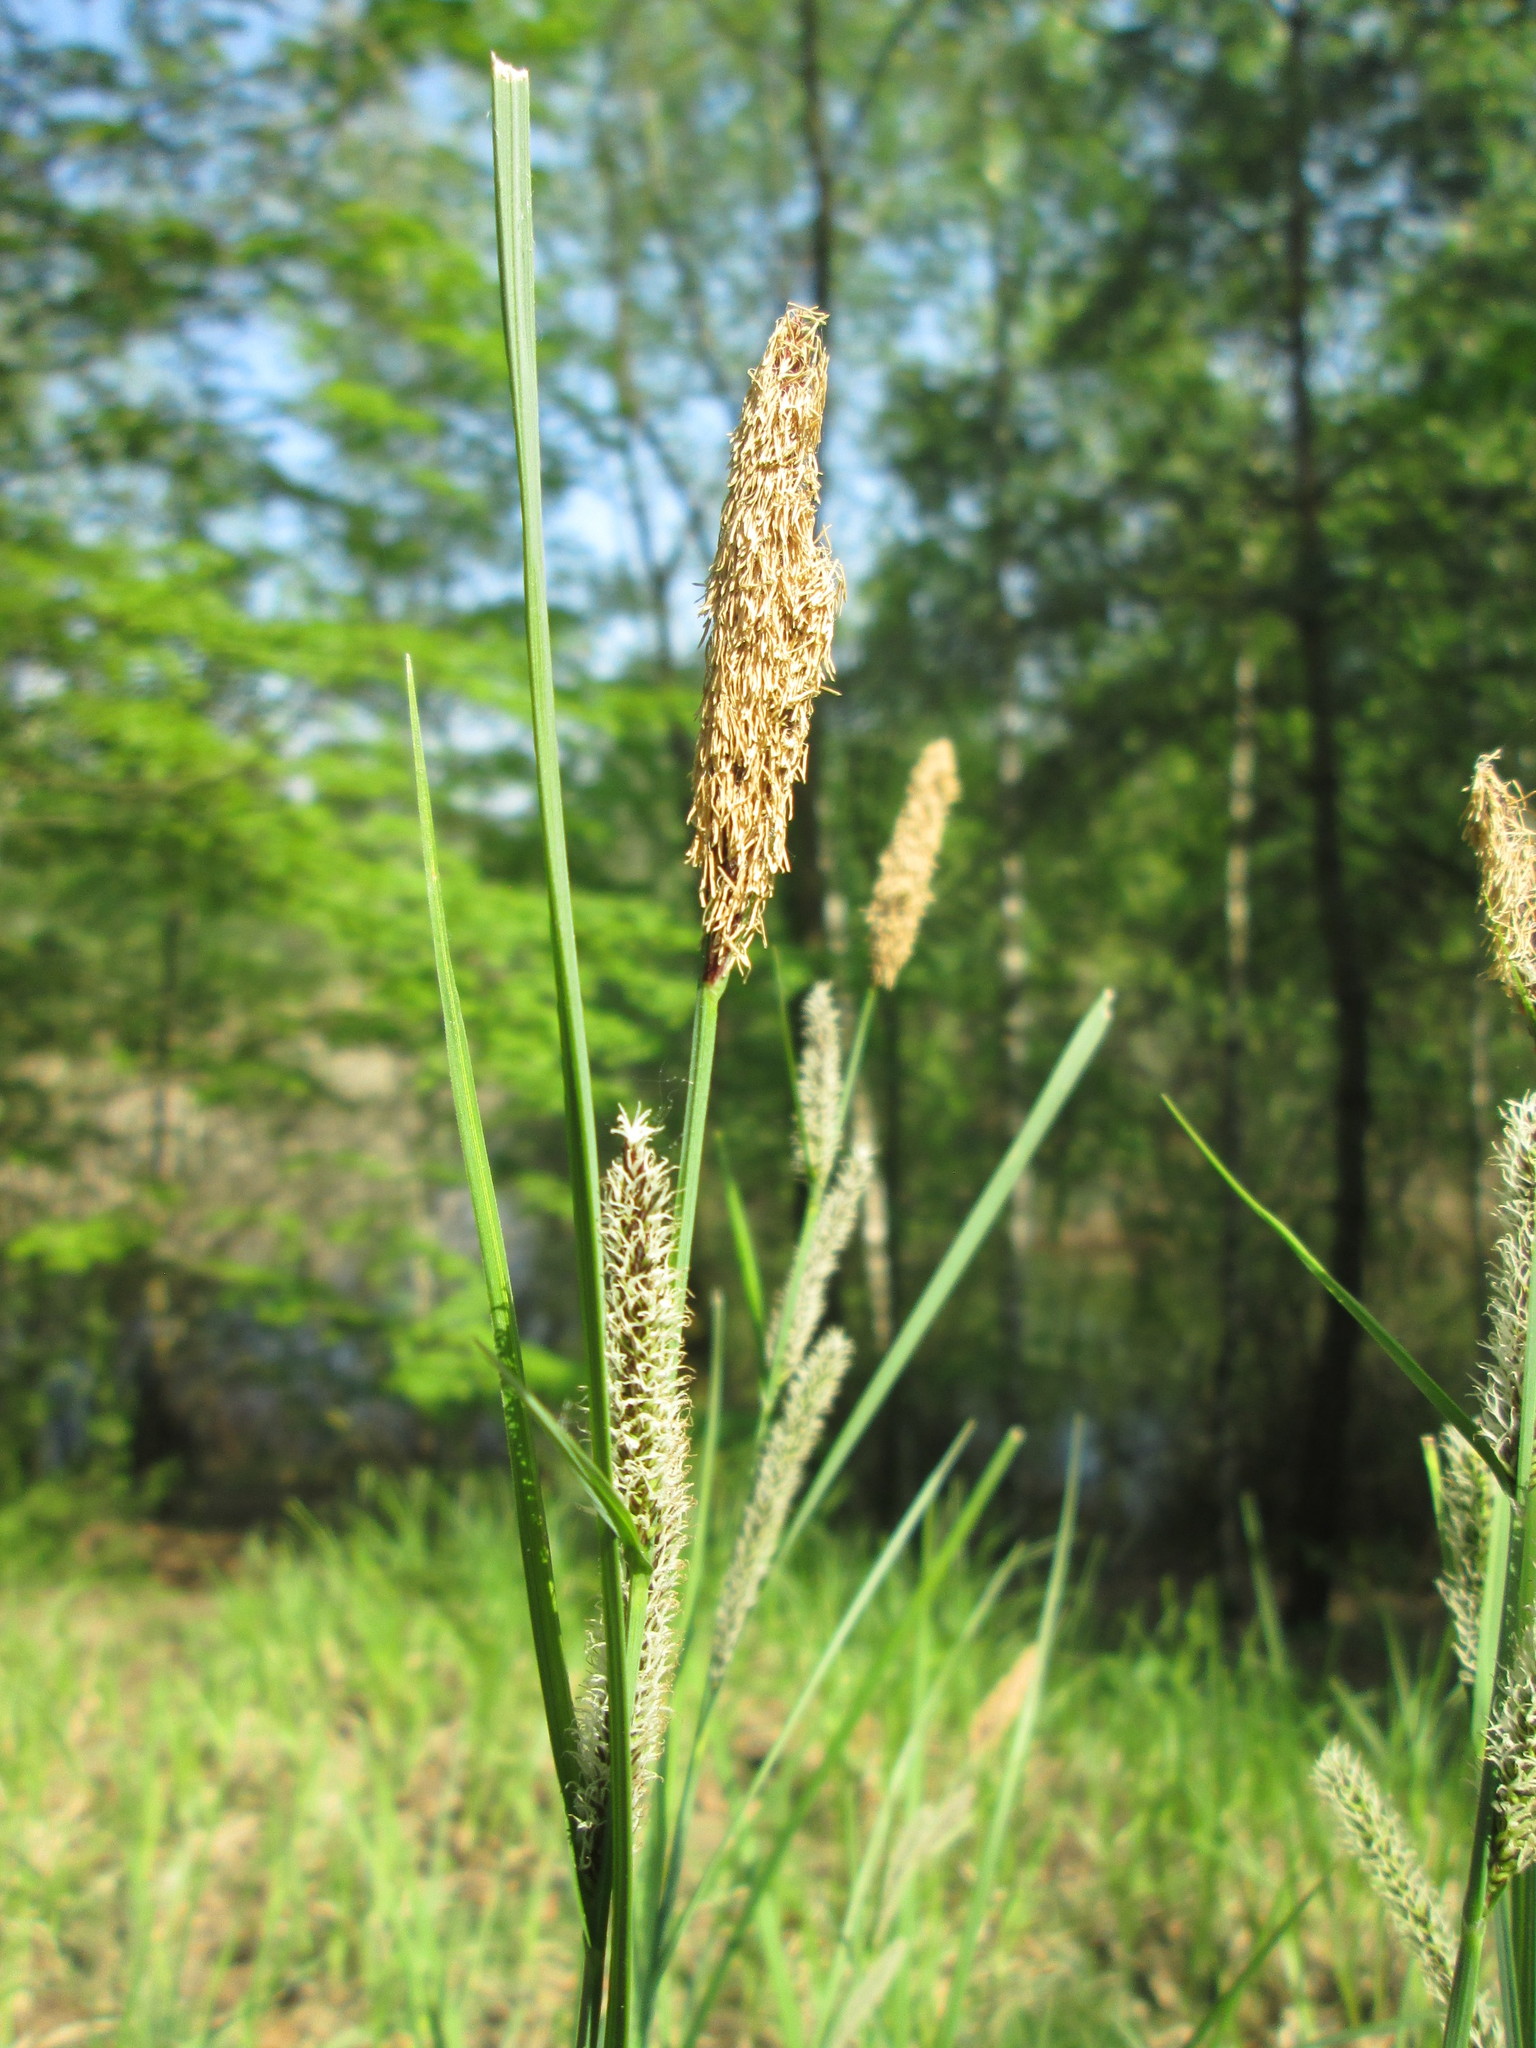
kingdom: Plantae
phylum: Tracheophyta
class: Liliopsida
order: Poales
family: Cyperaceae
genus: Carex
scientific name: Carex acutiformis
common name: Lesser pond-sedge
